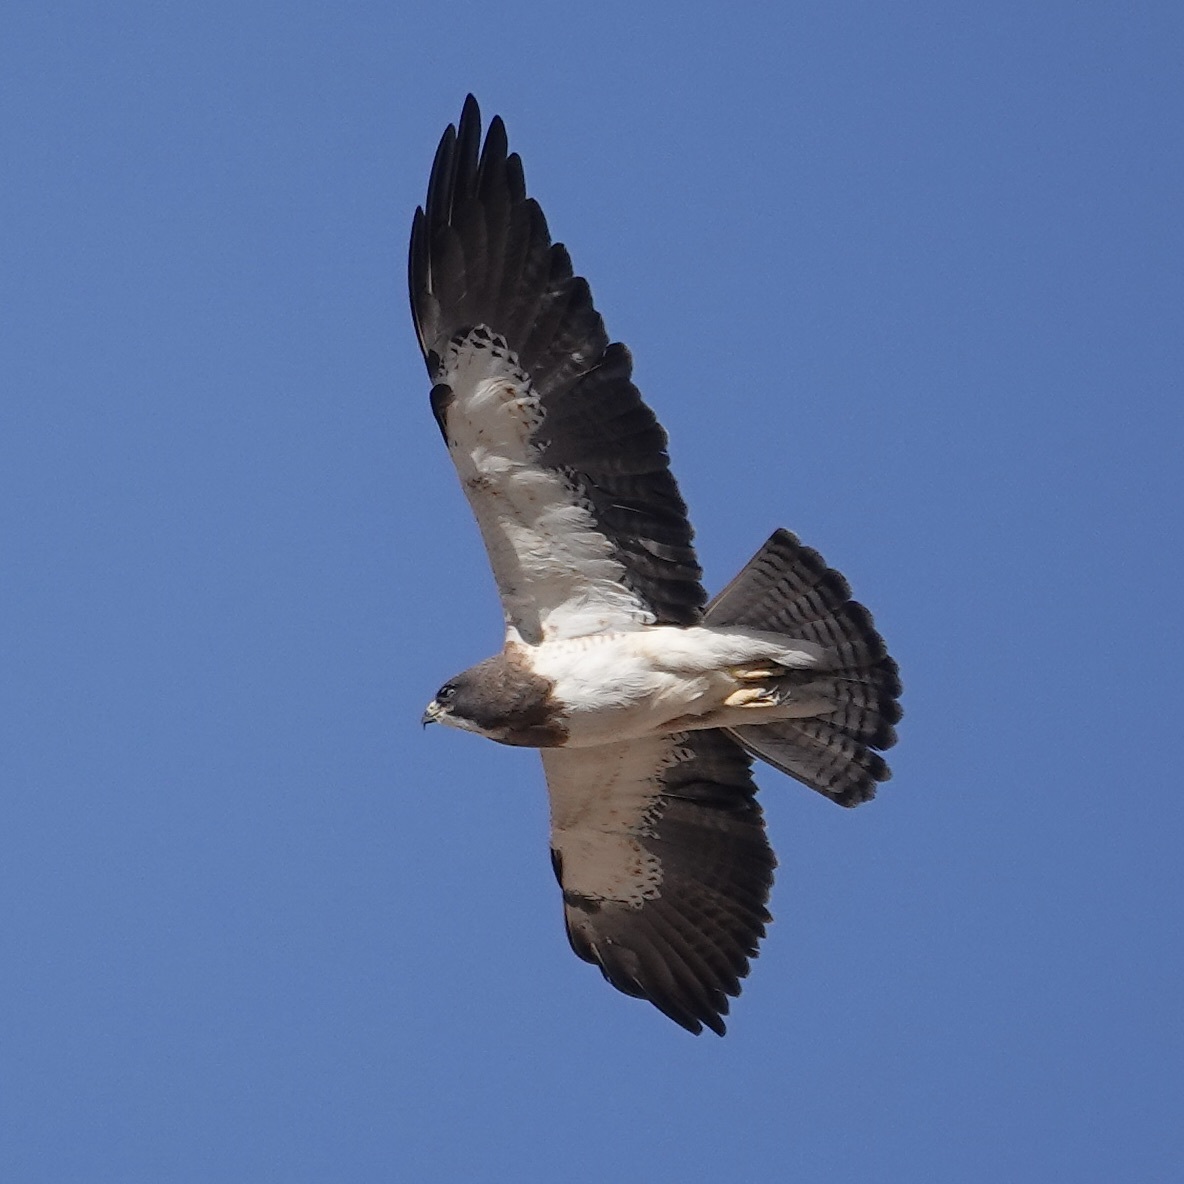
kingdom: Animalia
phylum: Chordata
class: Aves
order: Accipitriformes
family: Accipitridae
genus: Buteo
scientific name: Buteo swainsoni
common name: Swainson's hawk
